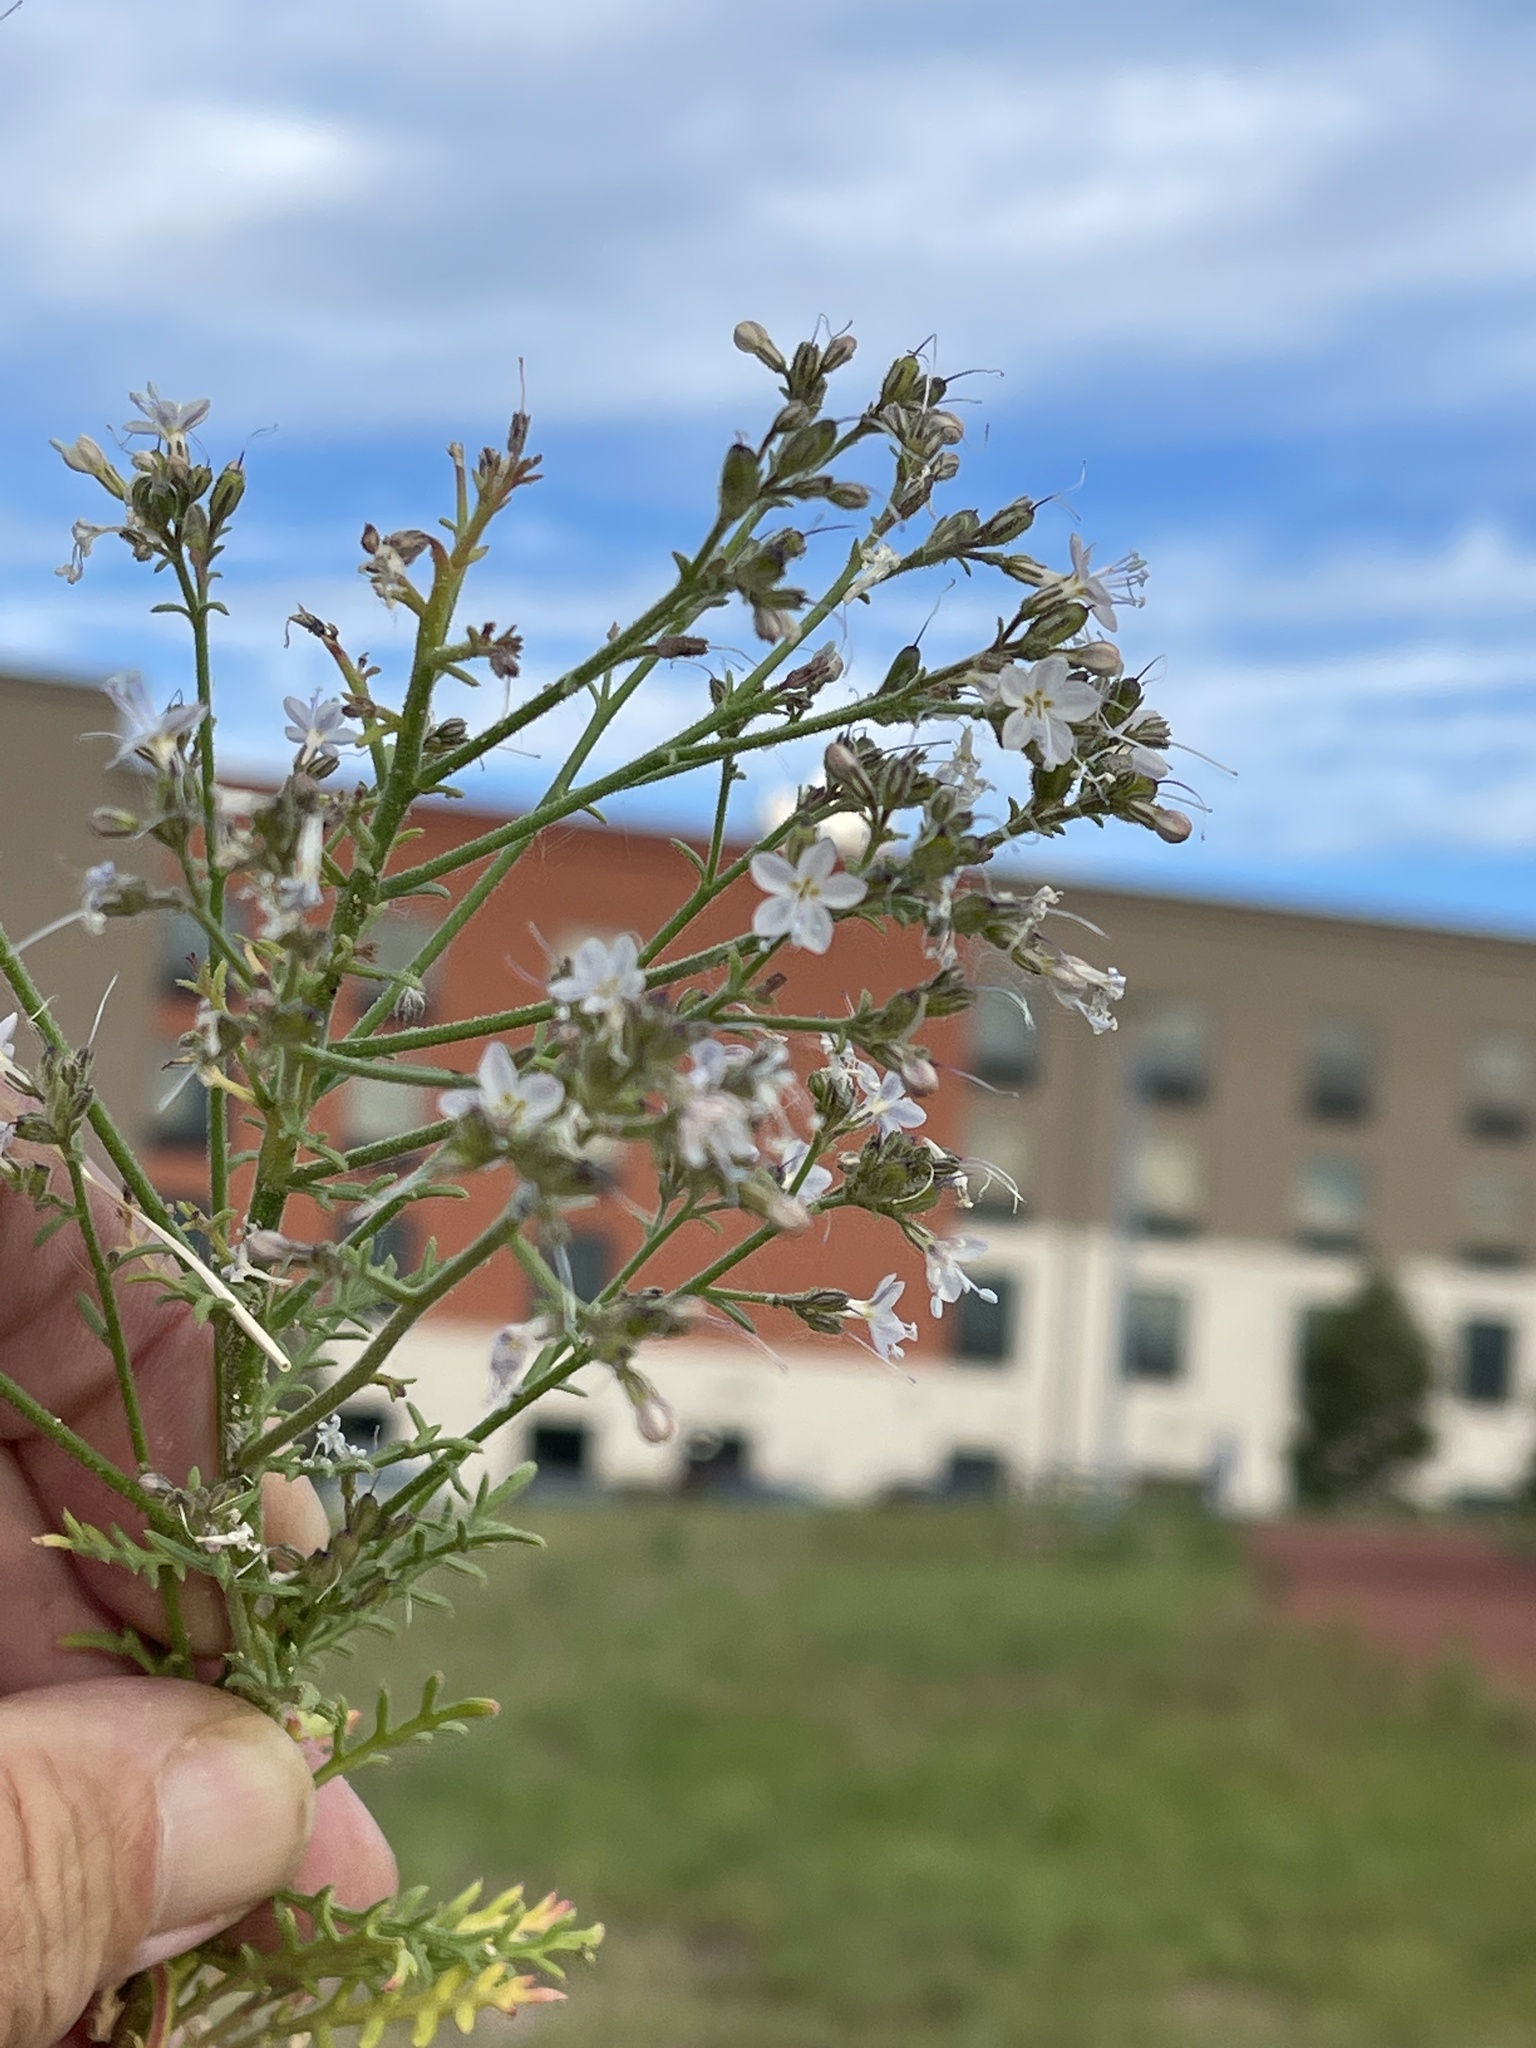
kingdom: Plantae
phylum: Tracheophyta
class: Magnoliopsida
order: Ericales
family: Polemoniaceae
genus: Aliciella
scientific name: Aliciella pinnatifida
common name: Sticky gilia
